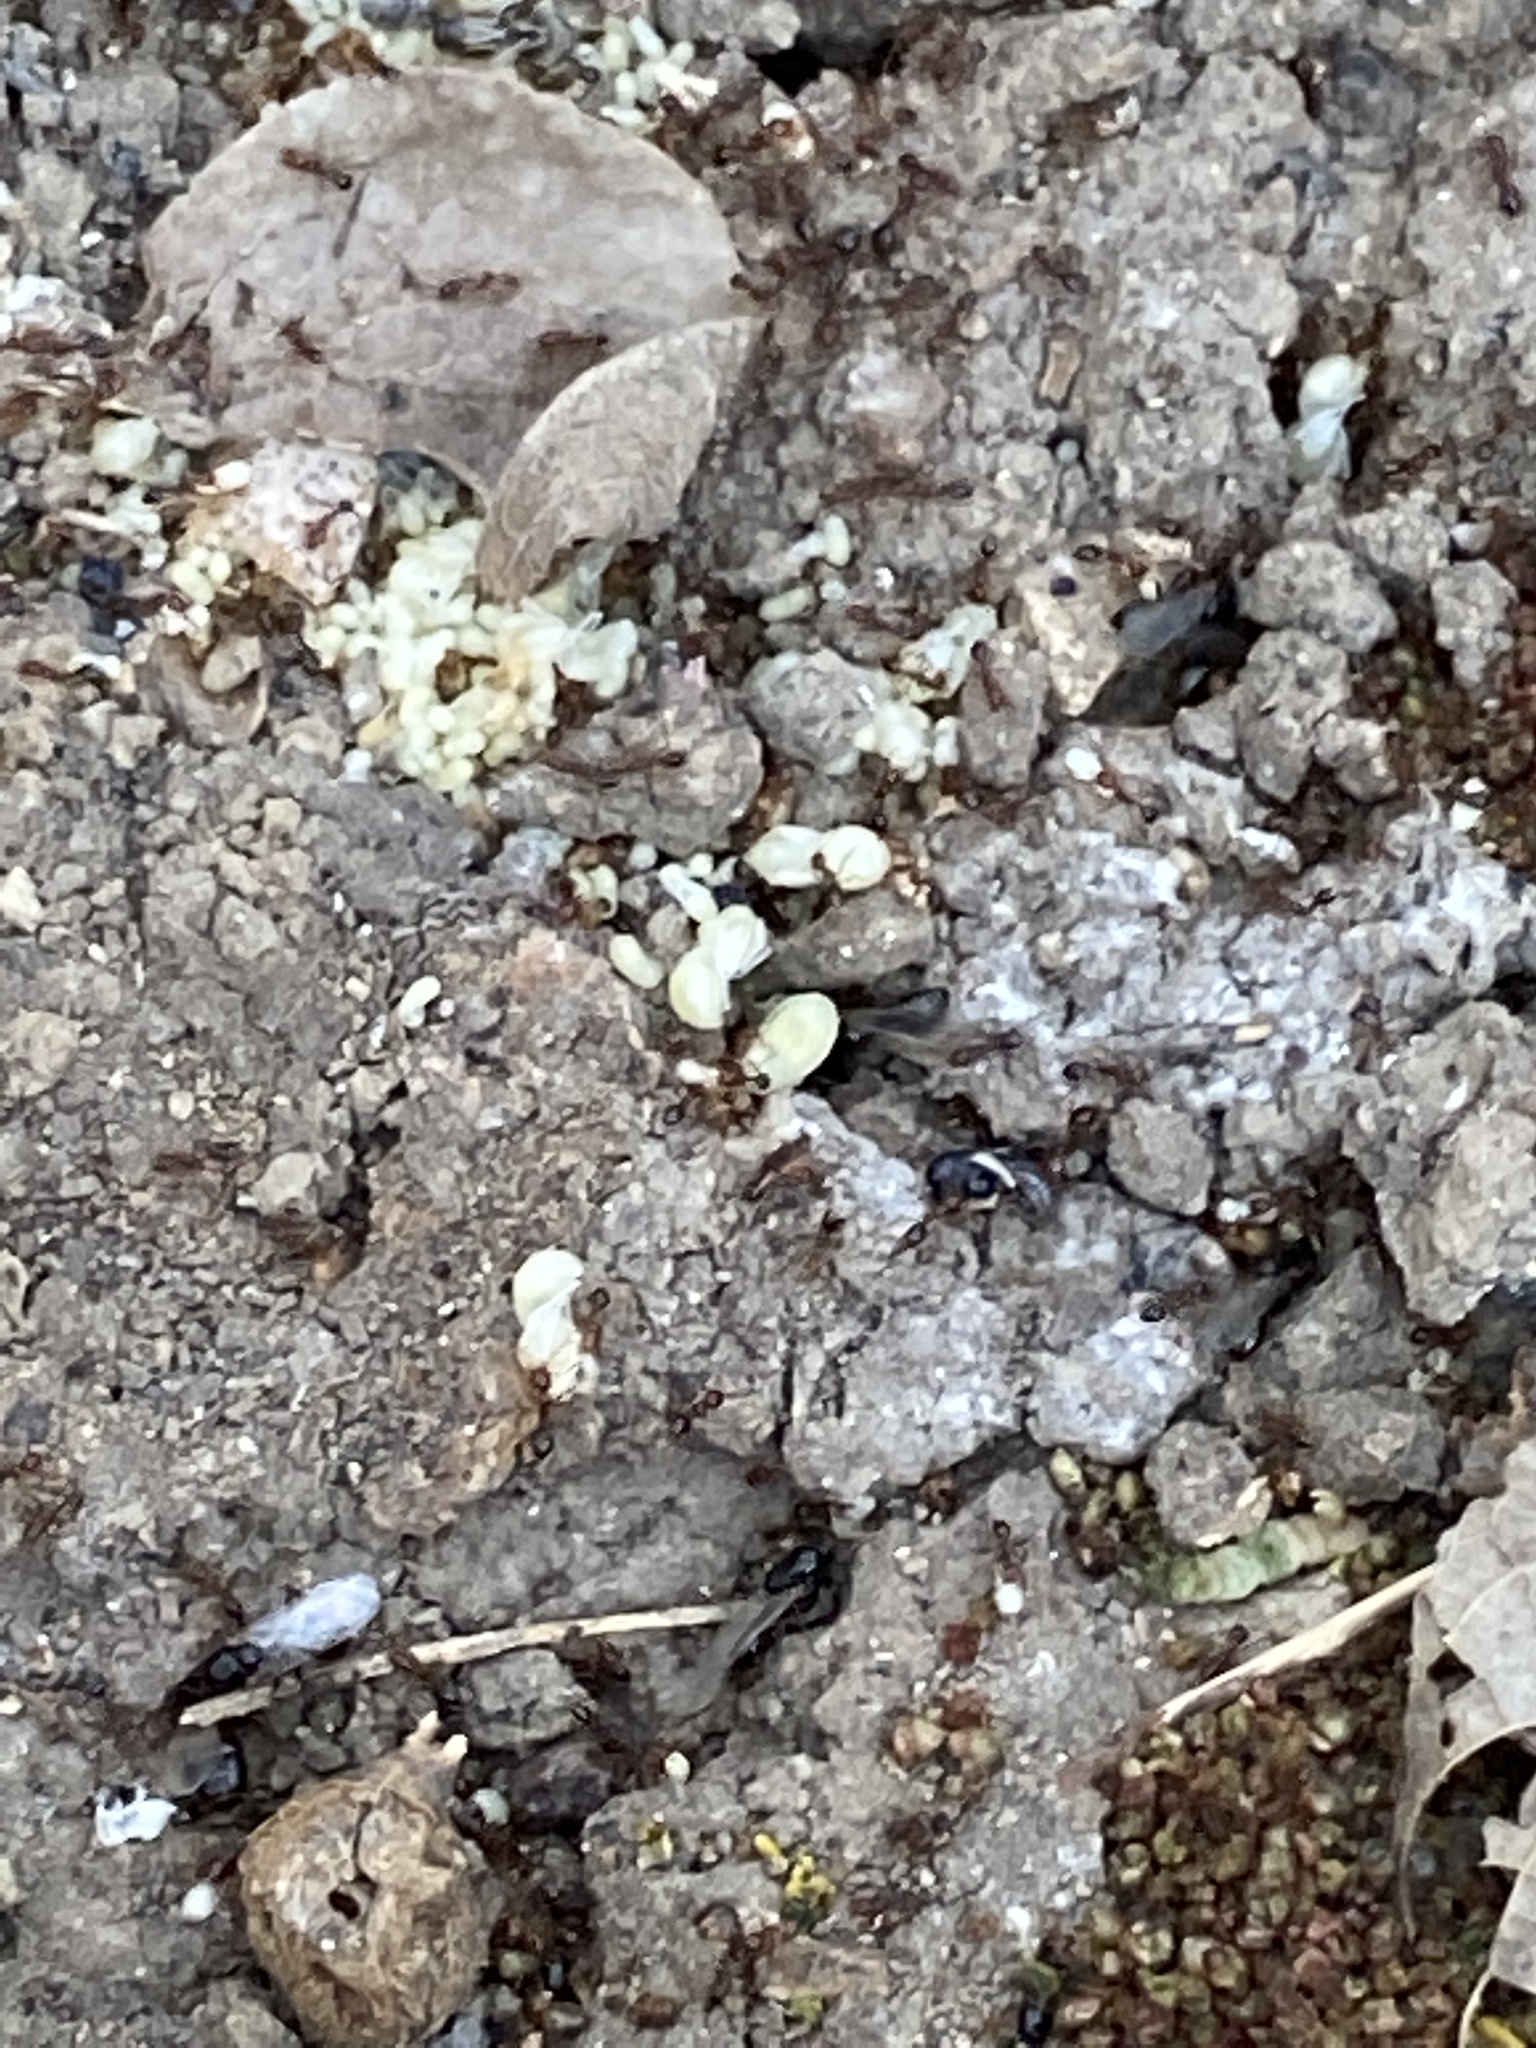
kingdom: Animalia
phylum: Arthropoda
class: Insecta
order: Hymenoptera
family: Formicidae
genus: Solenopsis
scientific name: Solenopsis invicta
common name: Red imported fire ant
